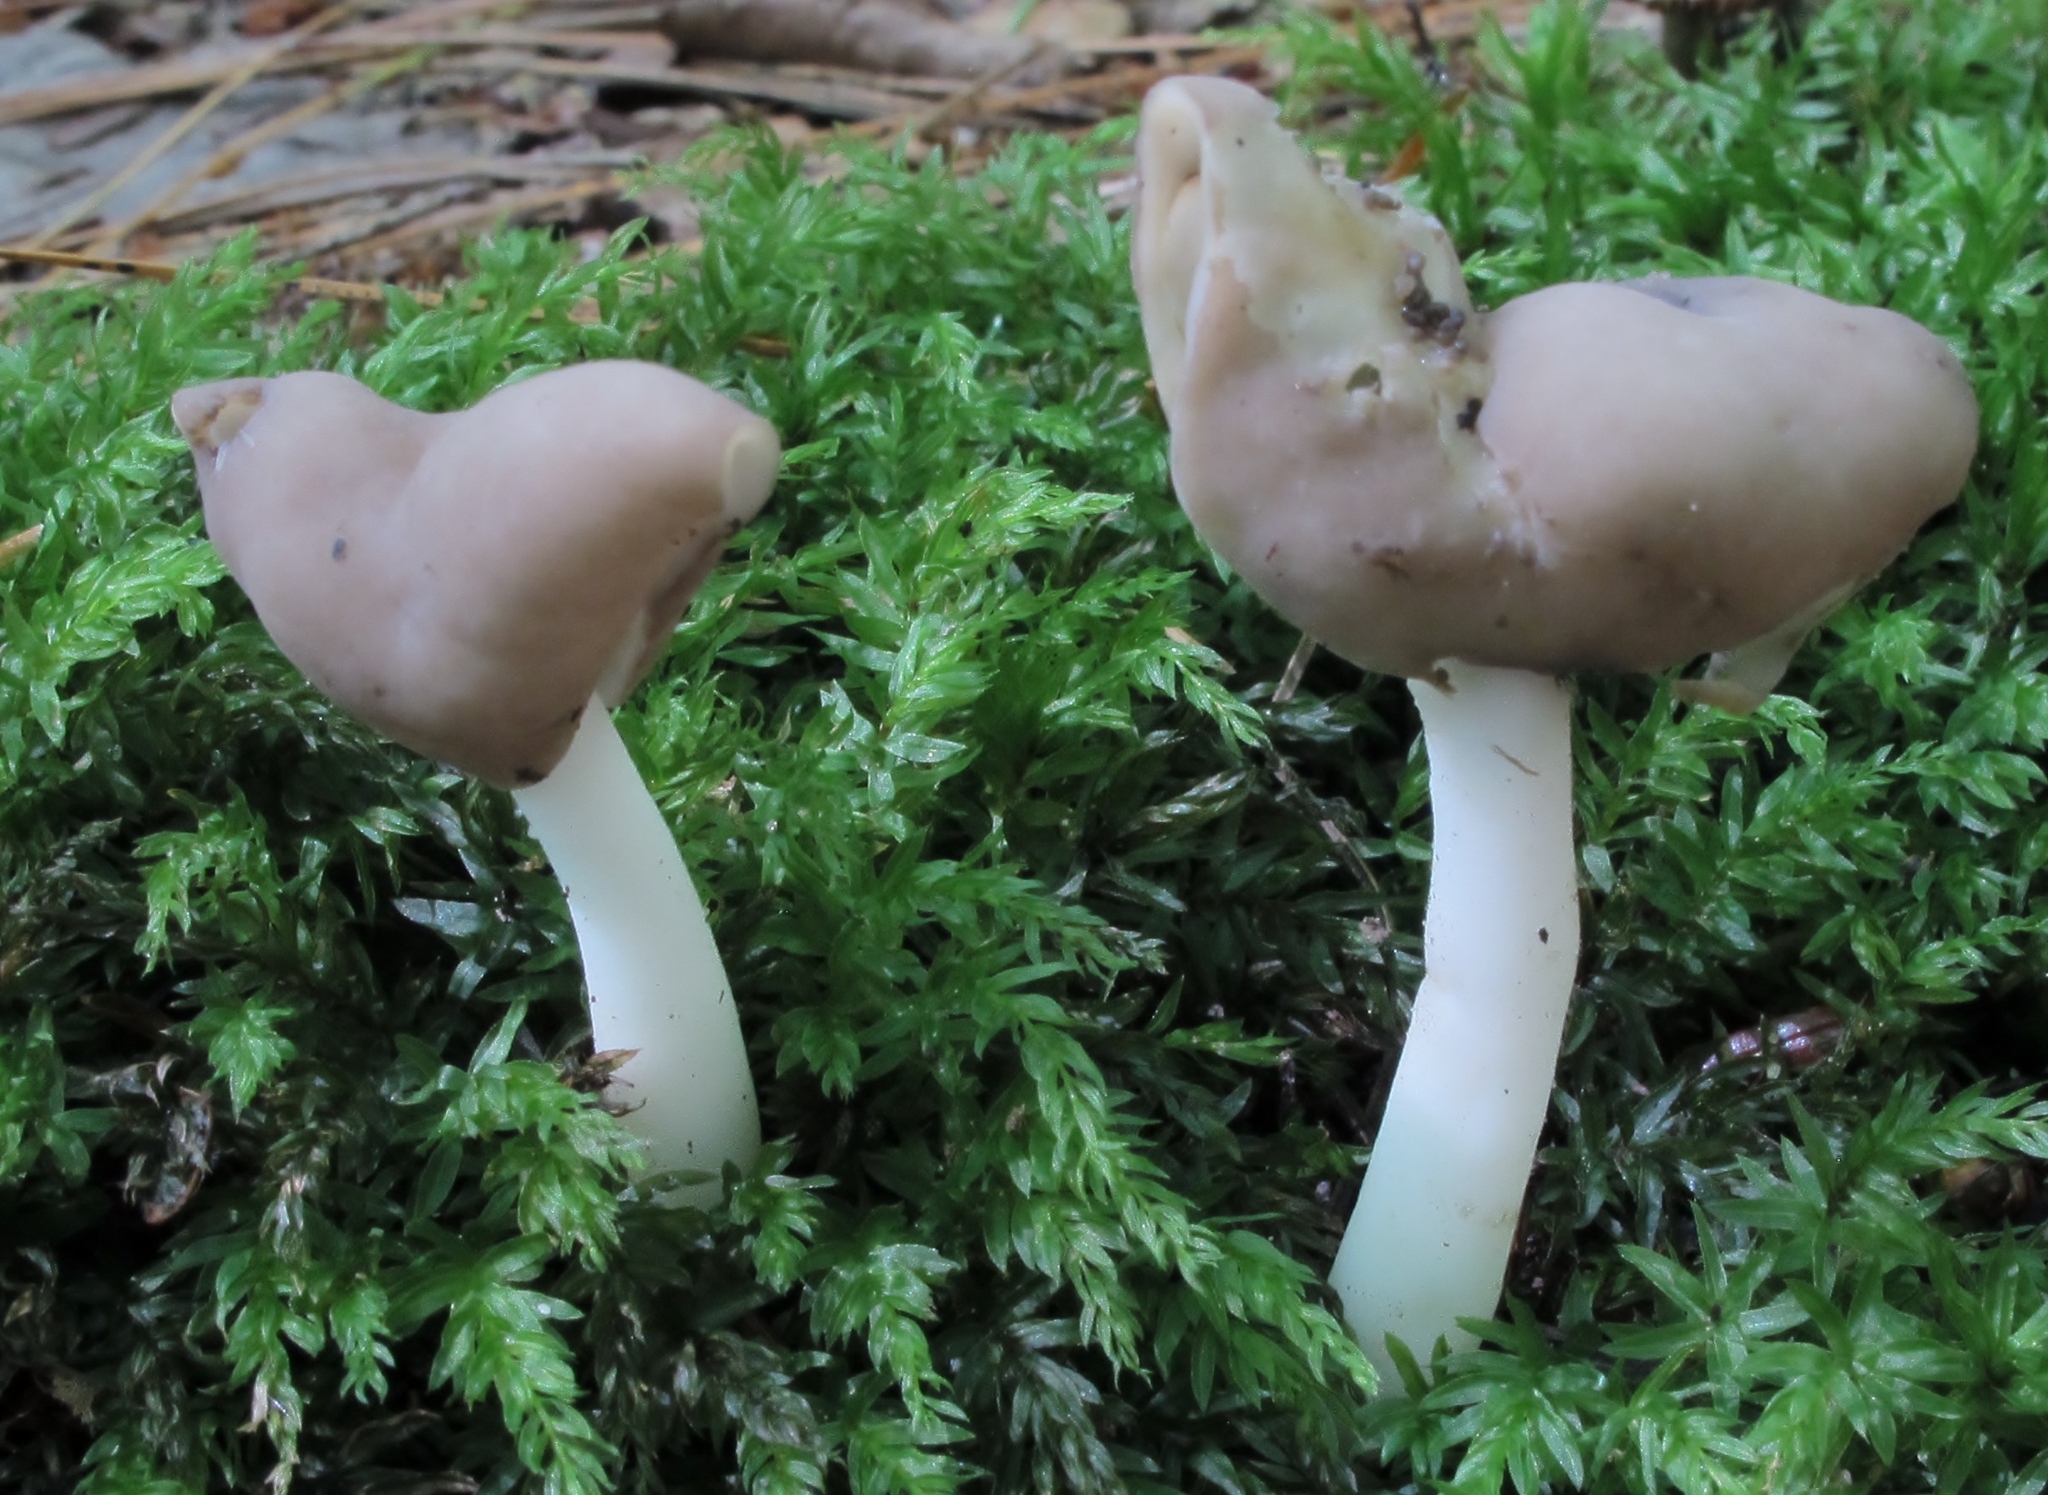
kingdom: Fungi
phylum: Ascomycota
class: Pezizomycetes
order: Pezizales
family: Helvellaceae
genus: Helvella
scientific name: Helvella elastica
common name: Elastic saddle
